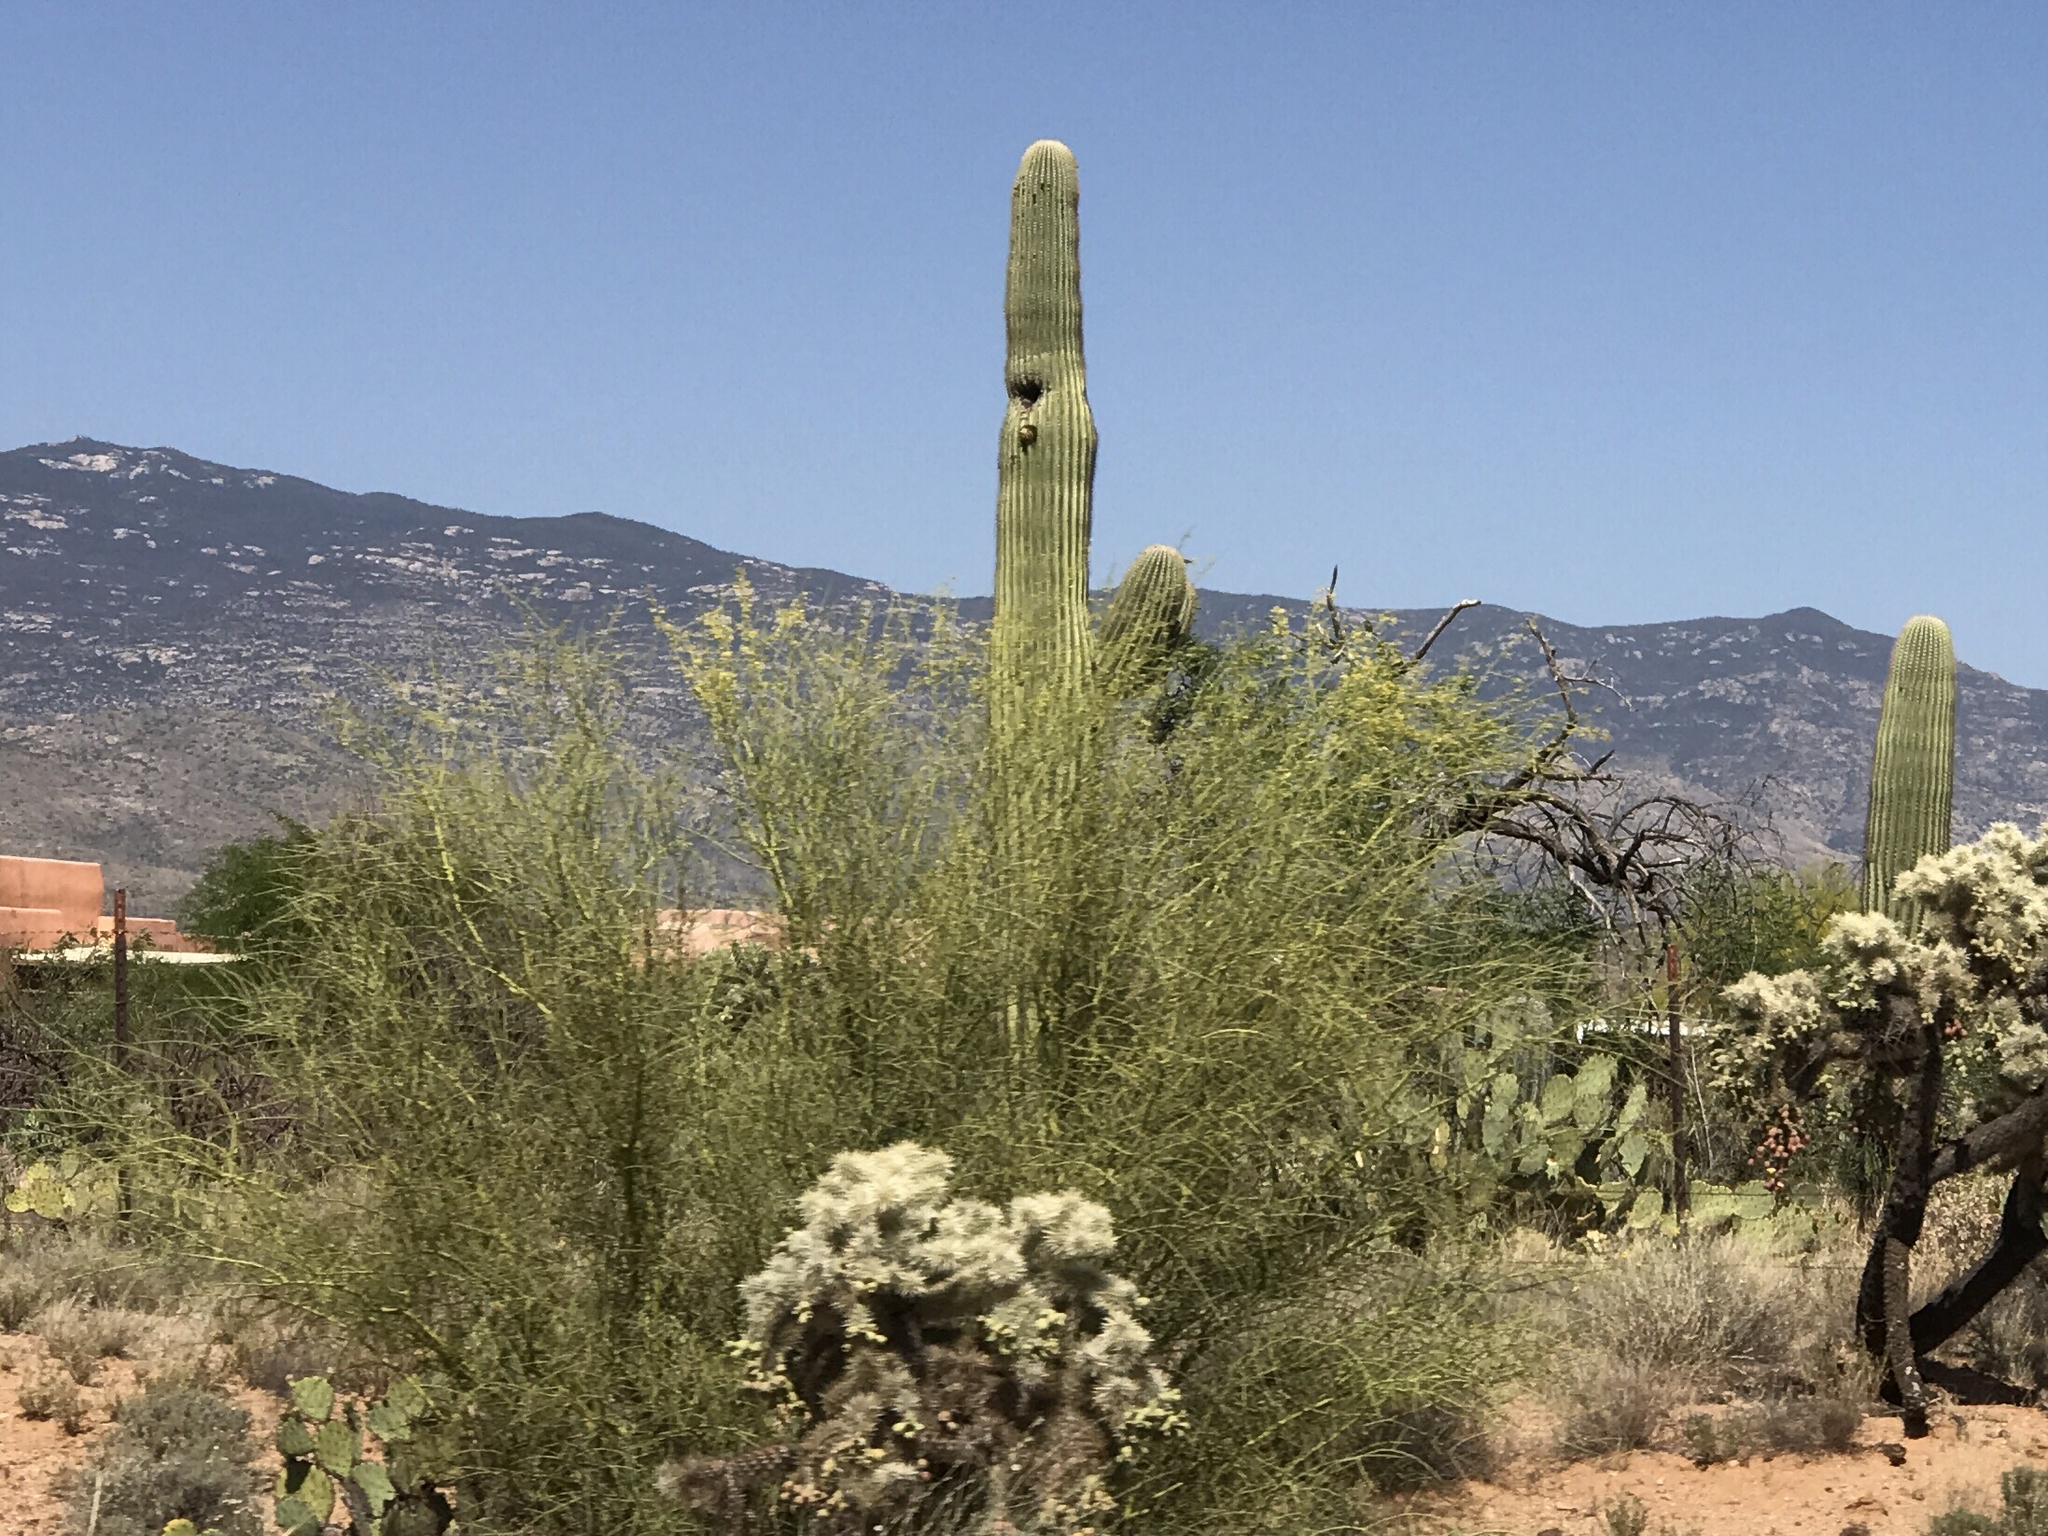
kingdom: Plantae
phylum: Tracheophyta
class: Magnoliopsida
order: Caryophyllales
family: Cactaceae
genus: Carnegiea
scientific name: Carnegiea gigantea
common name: Saguaro
